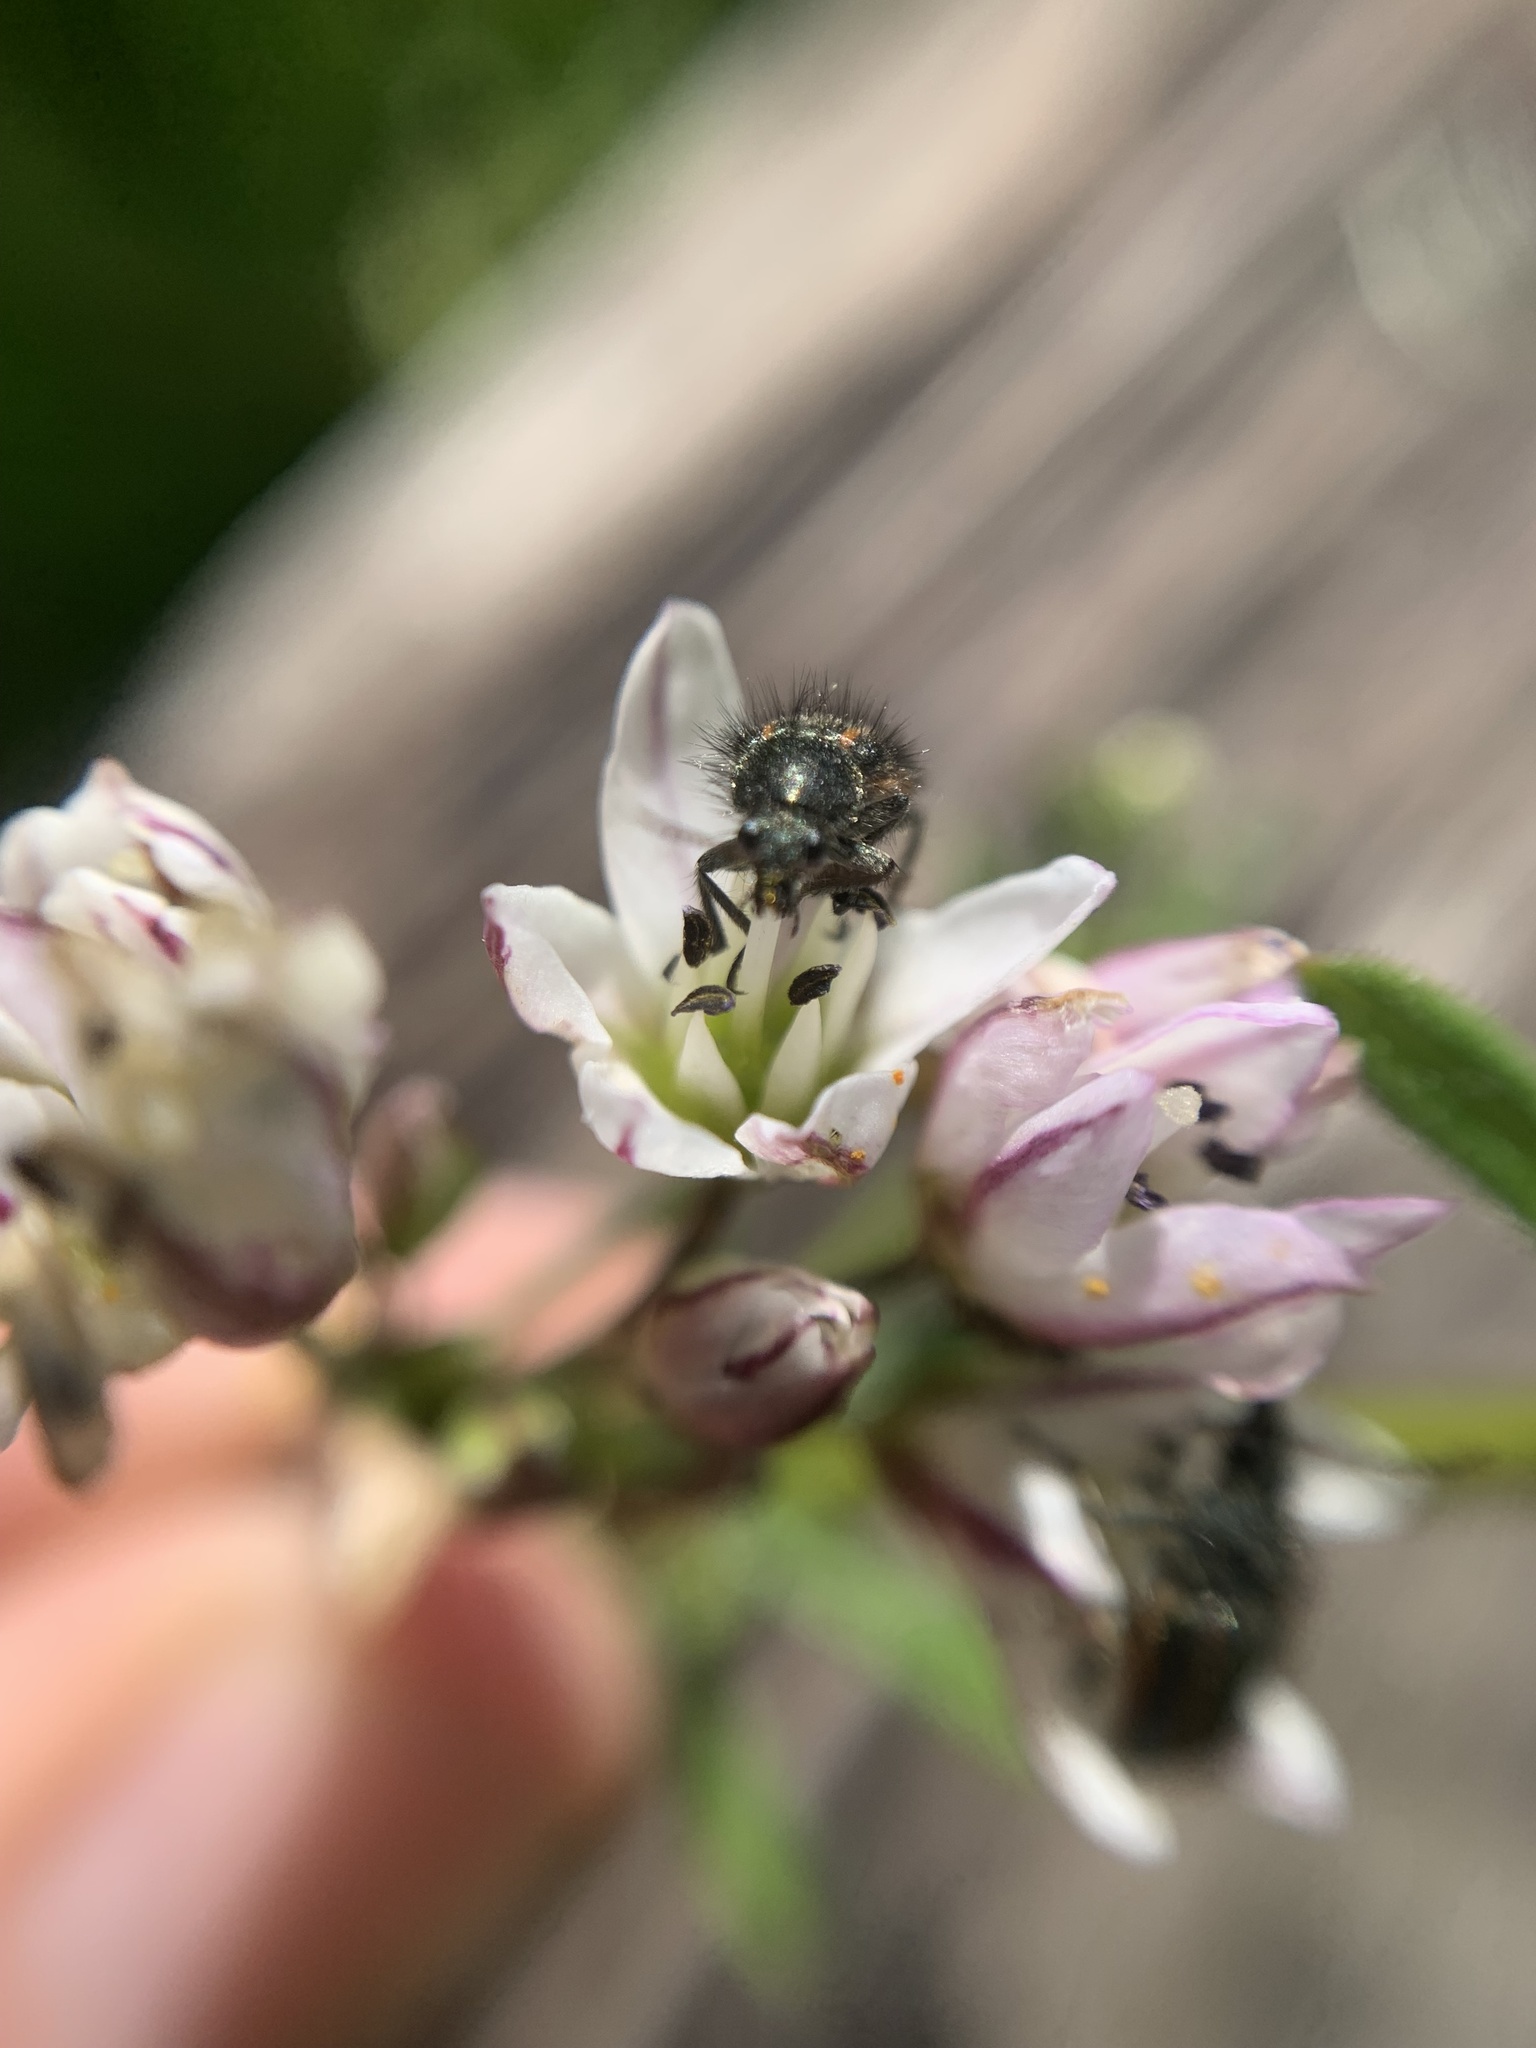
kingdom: Animalia
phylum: Arthropoda
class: Insecta
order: Coleoptera
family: Melyridae
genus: Astylus
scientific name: Astylus
